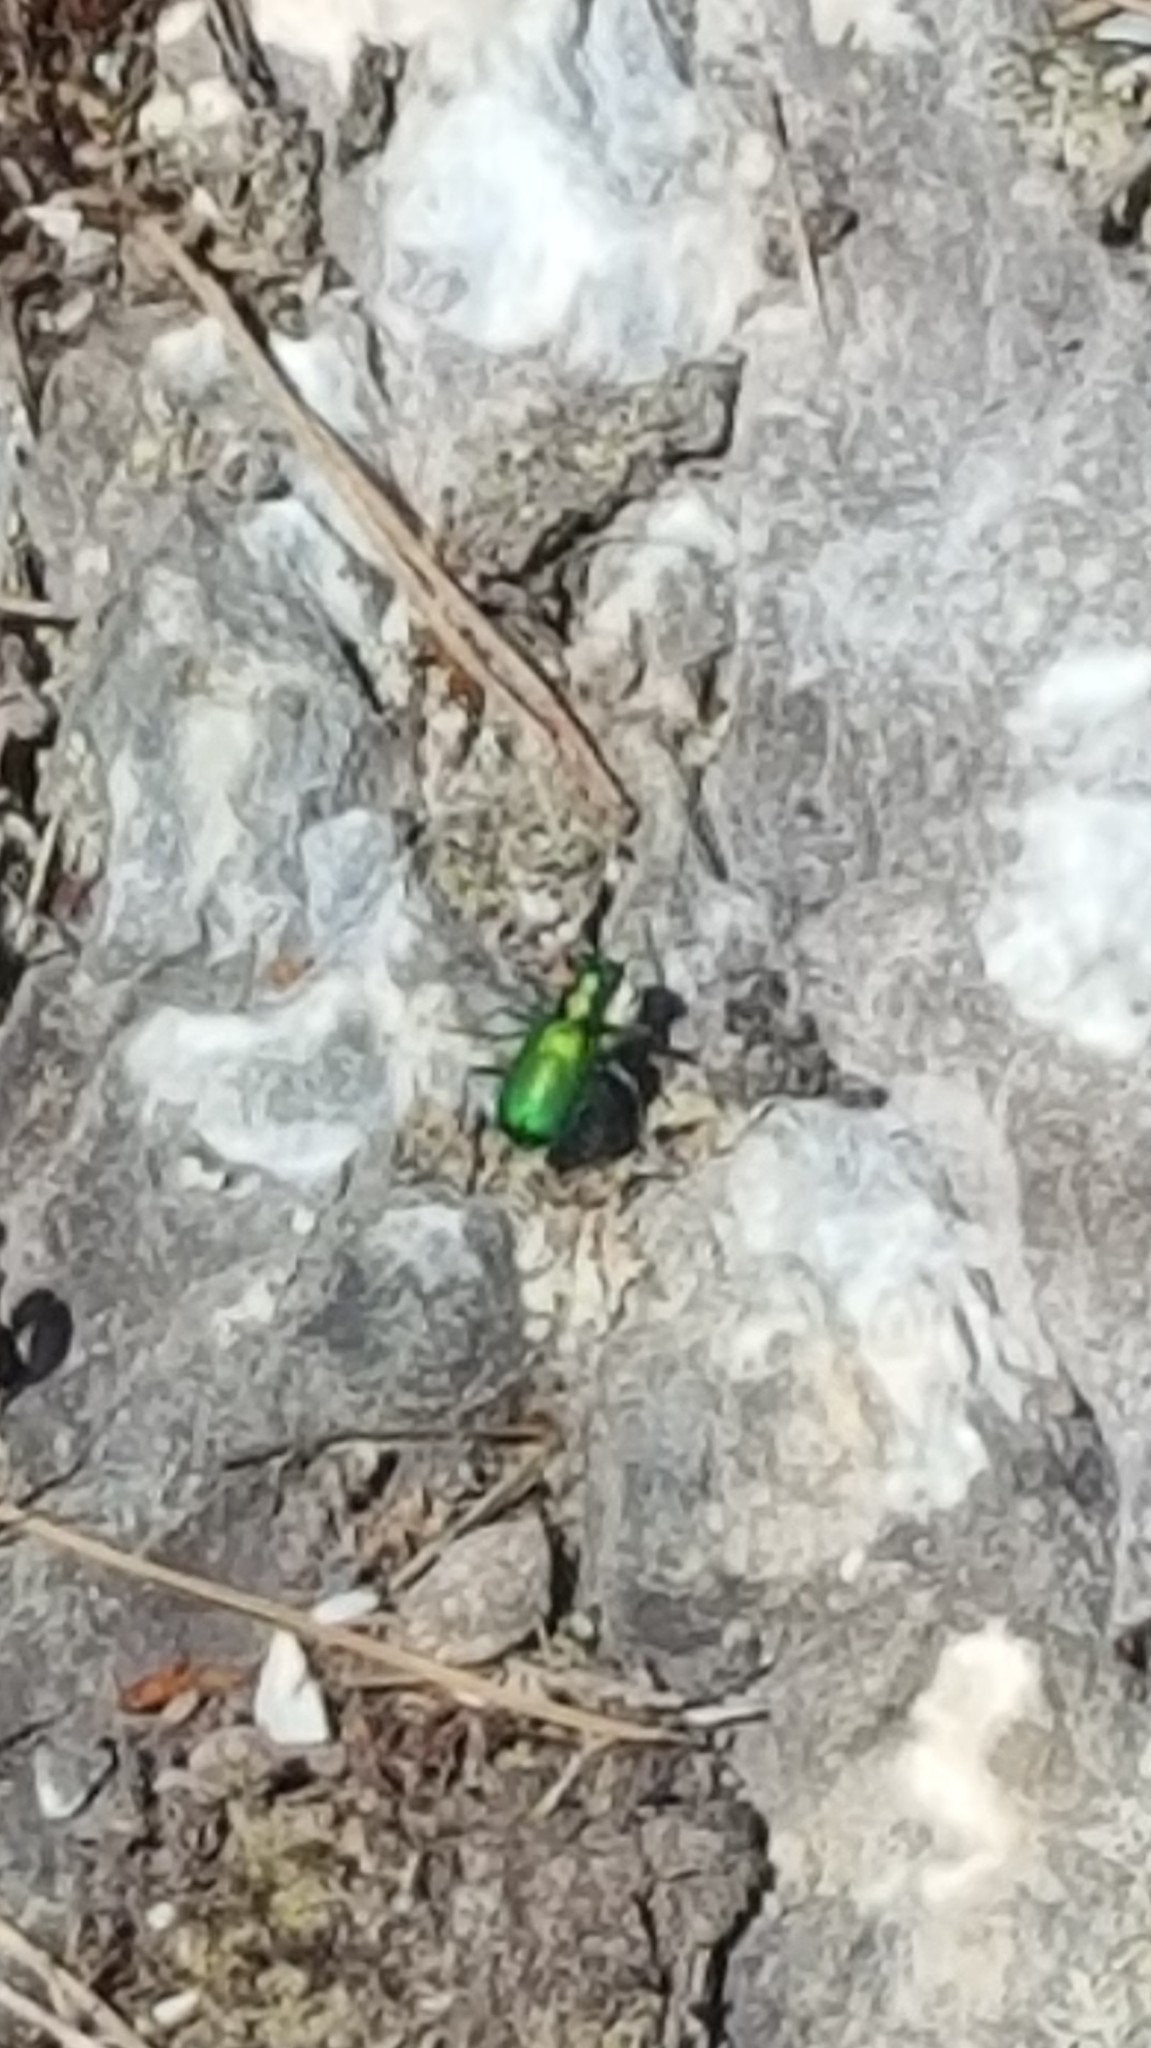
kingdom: Animalia
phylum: Arthropoda
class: Insecta
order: Coleoptera
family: Carabidae
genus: Cicindela
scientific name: Cicindela denikei
